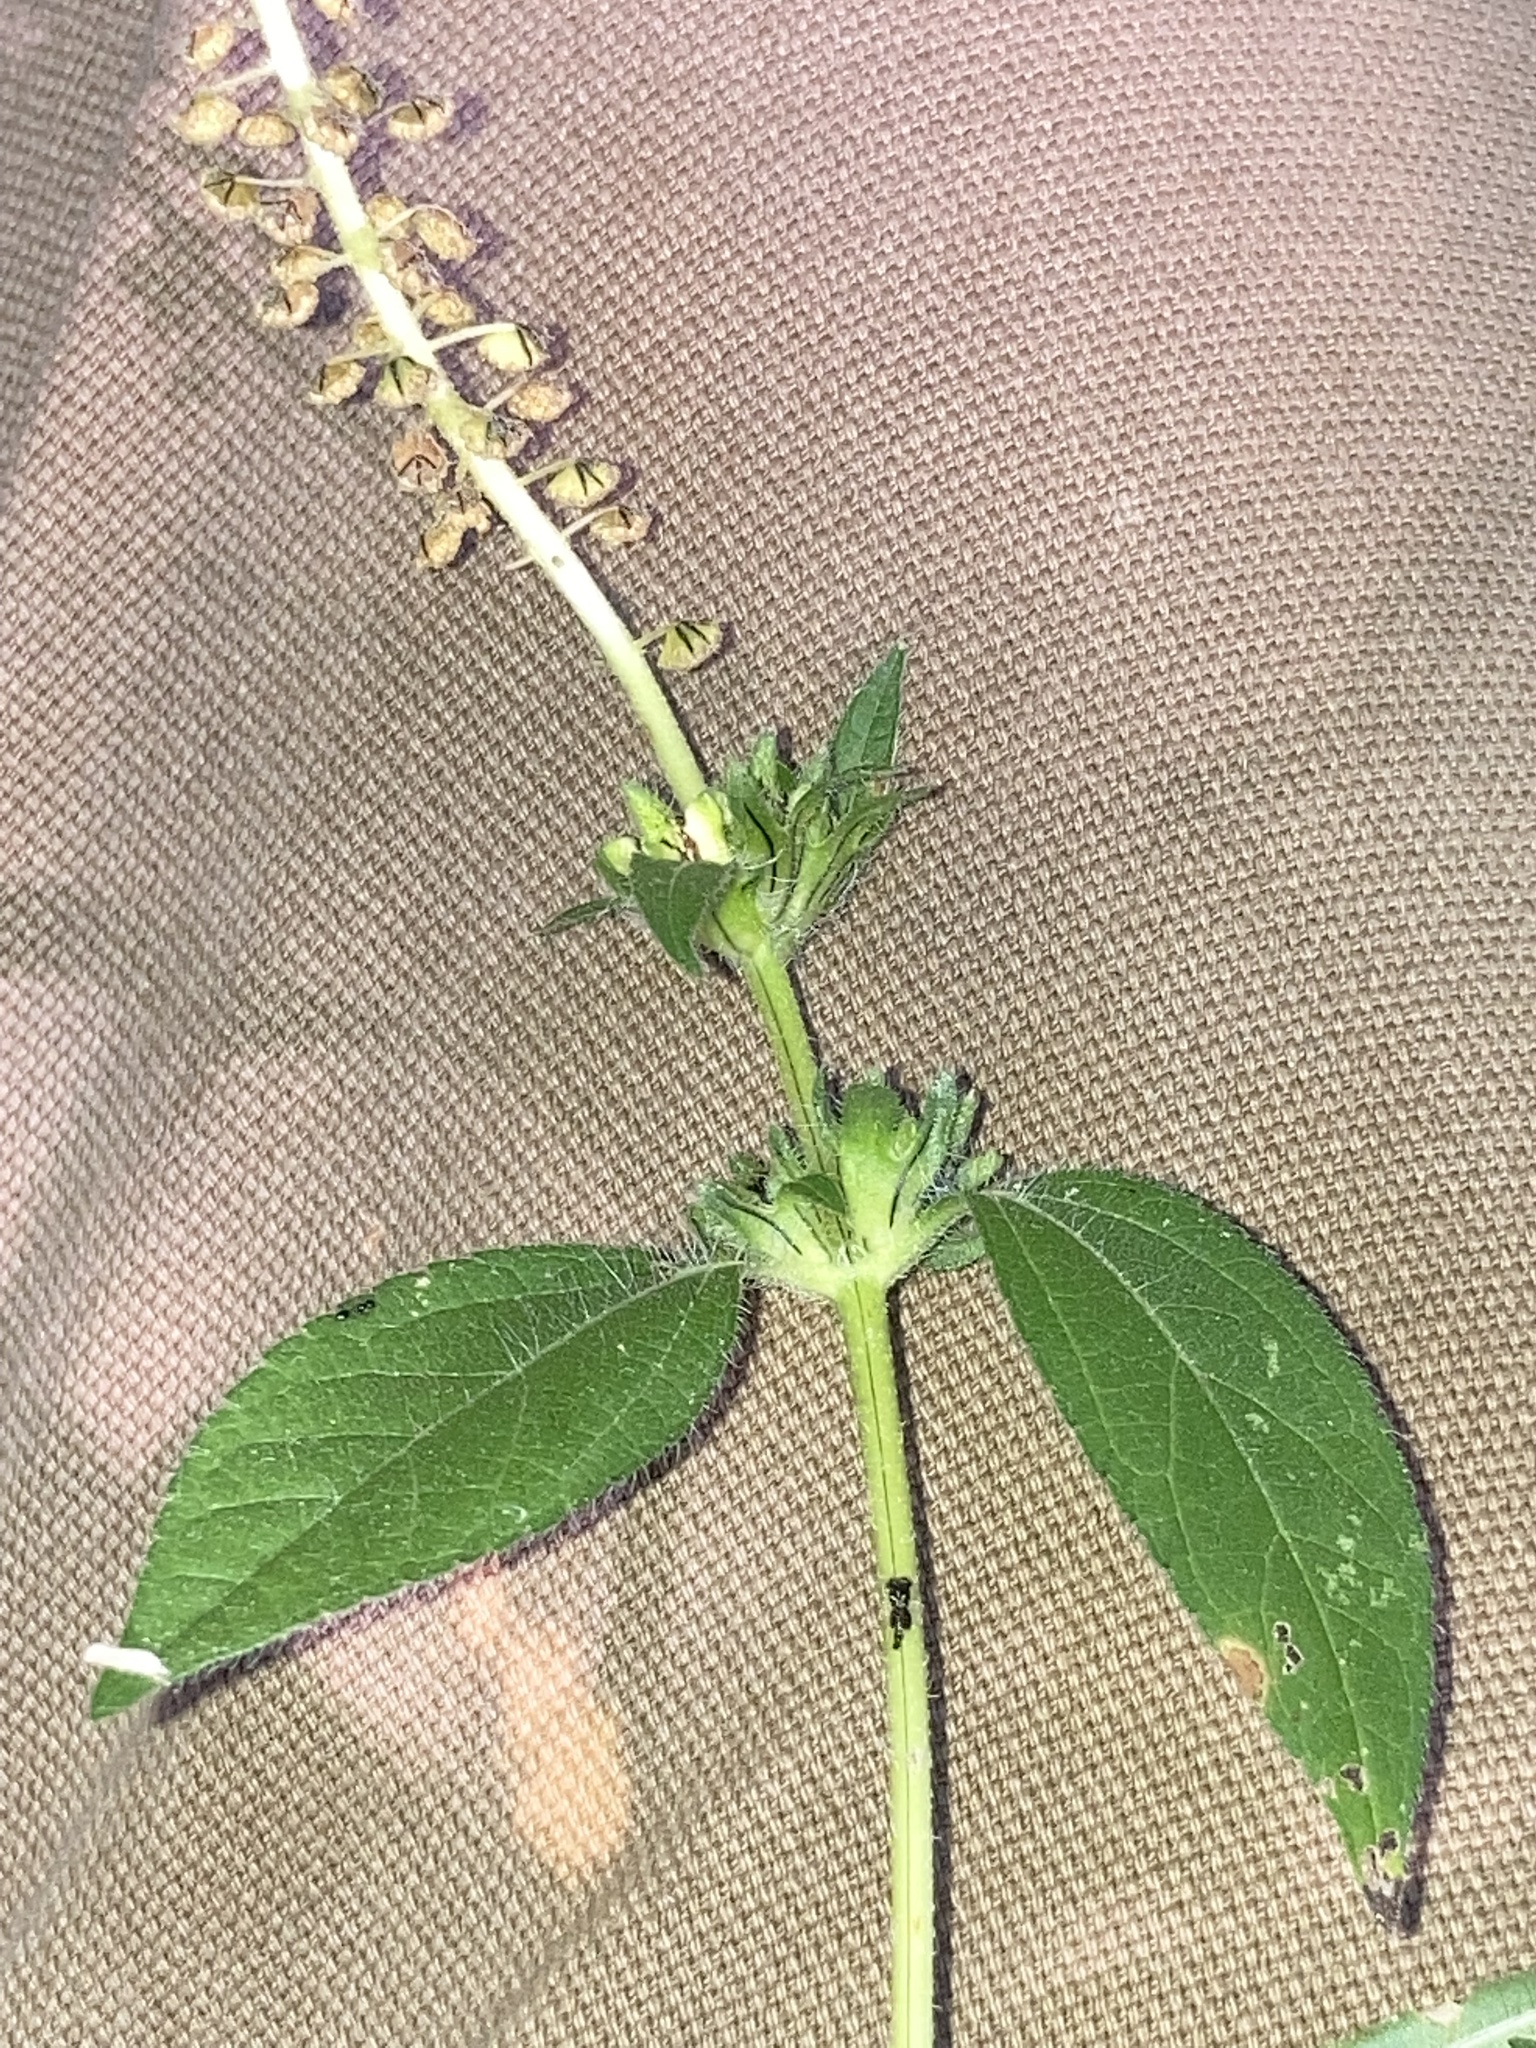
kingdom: Plantae
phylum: Tracheophyta
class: Magnoliopsida
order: Asterales
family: Asteraceae
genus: Ambrosia
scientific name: Ambrosia trifida
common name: Giant ragweed
